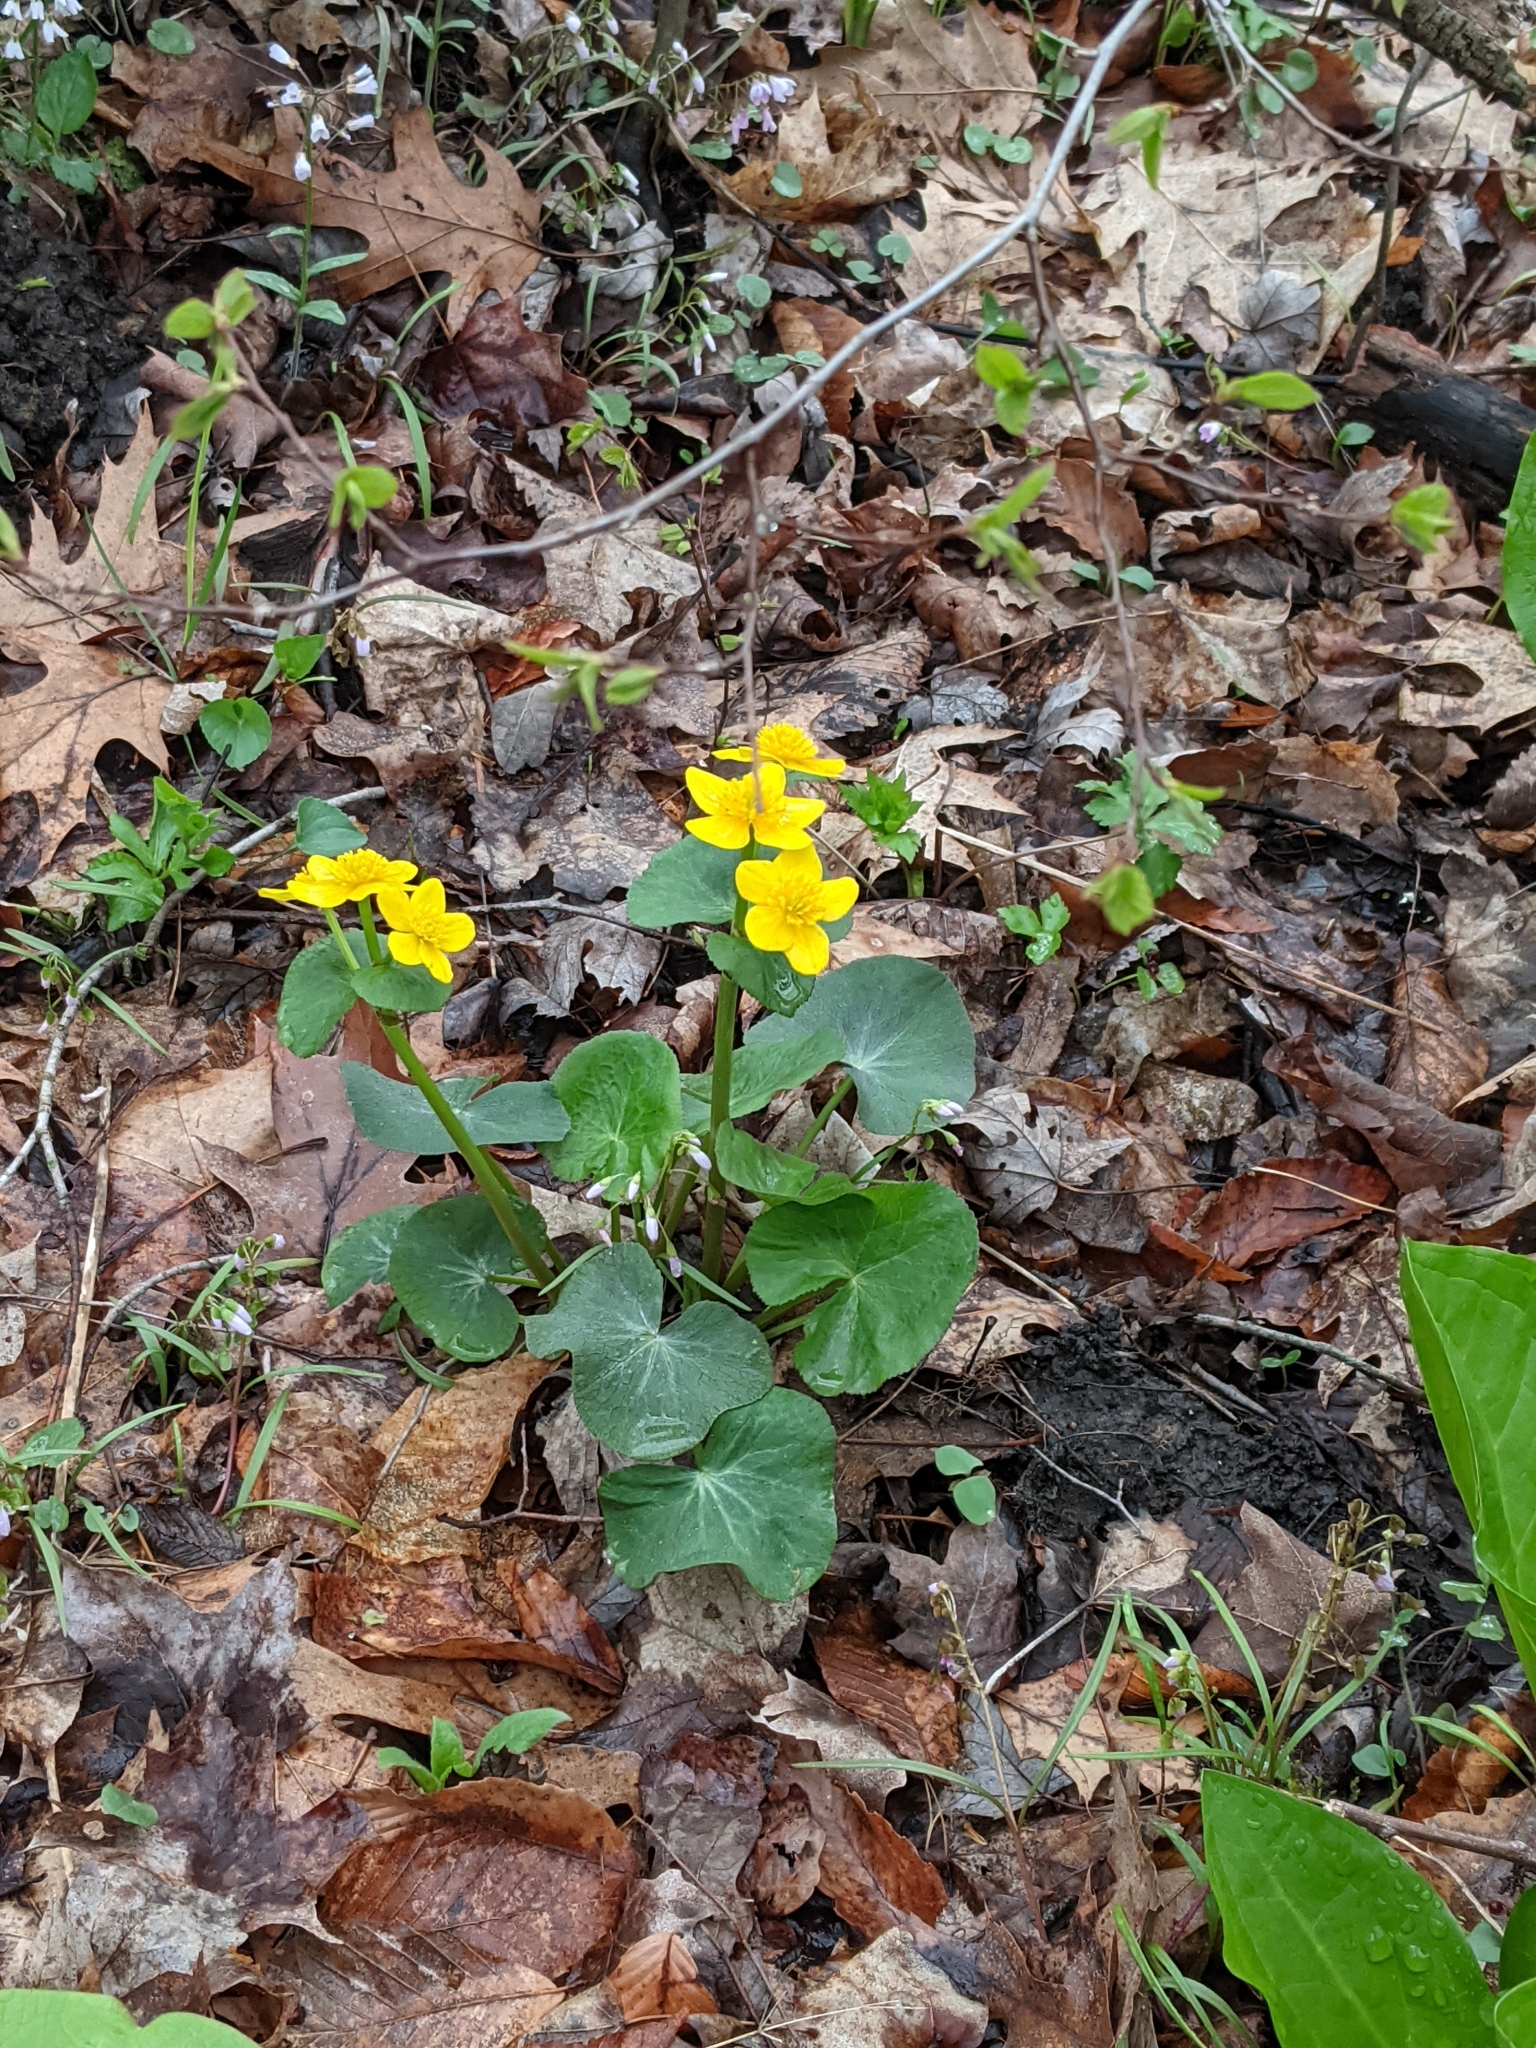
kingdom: Plantae
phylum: Tracheophyta
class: Magnoliopsida
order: Ranunculales
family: Ranunculaceae
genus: Caltha
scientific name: Caltha palustris
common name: Marsh marigold
